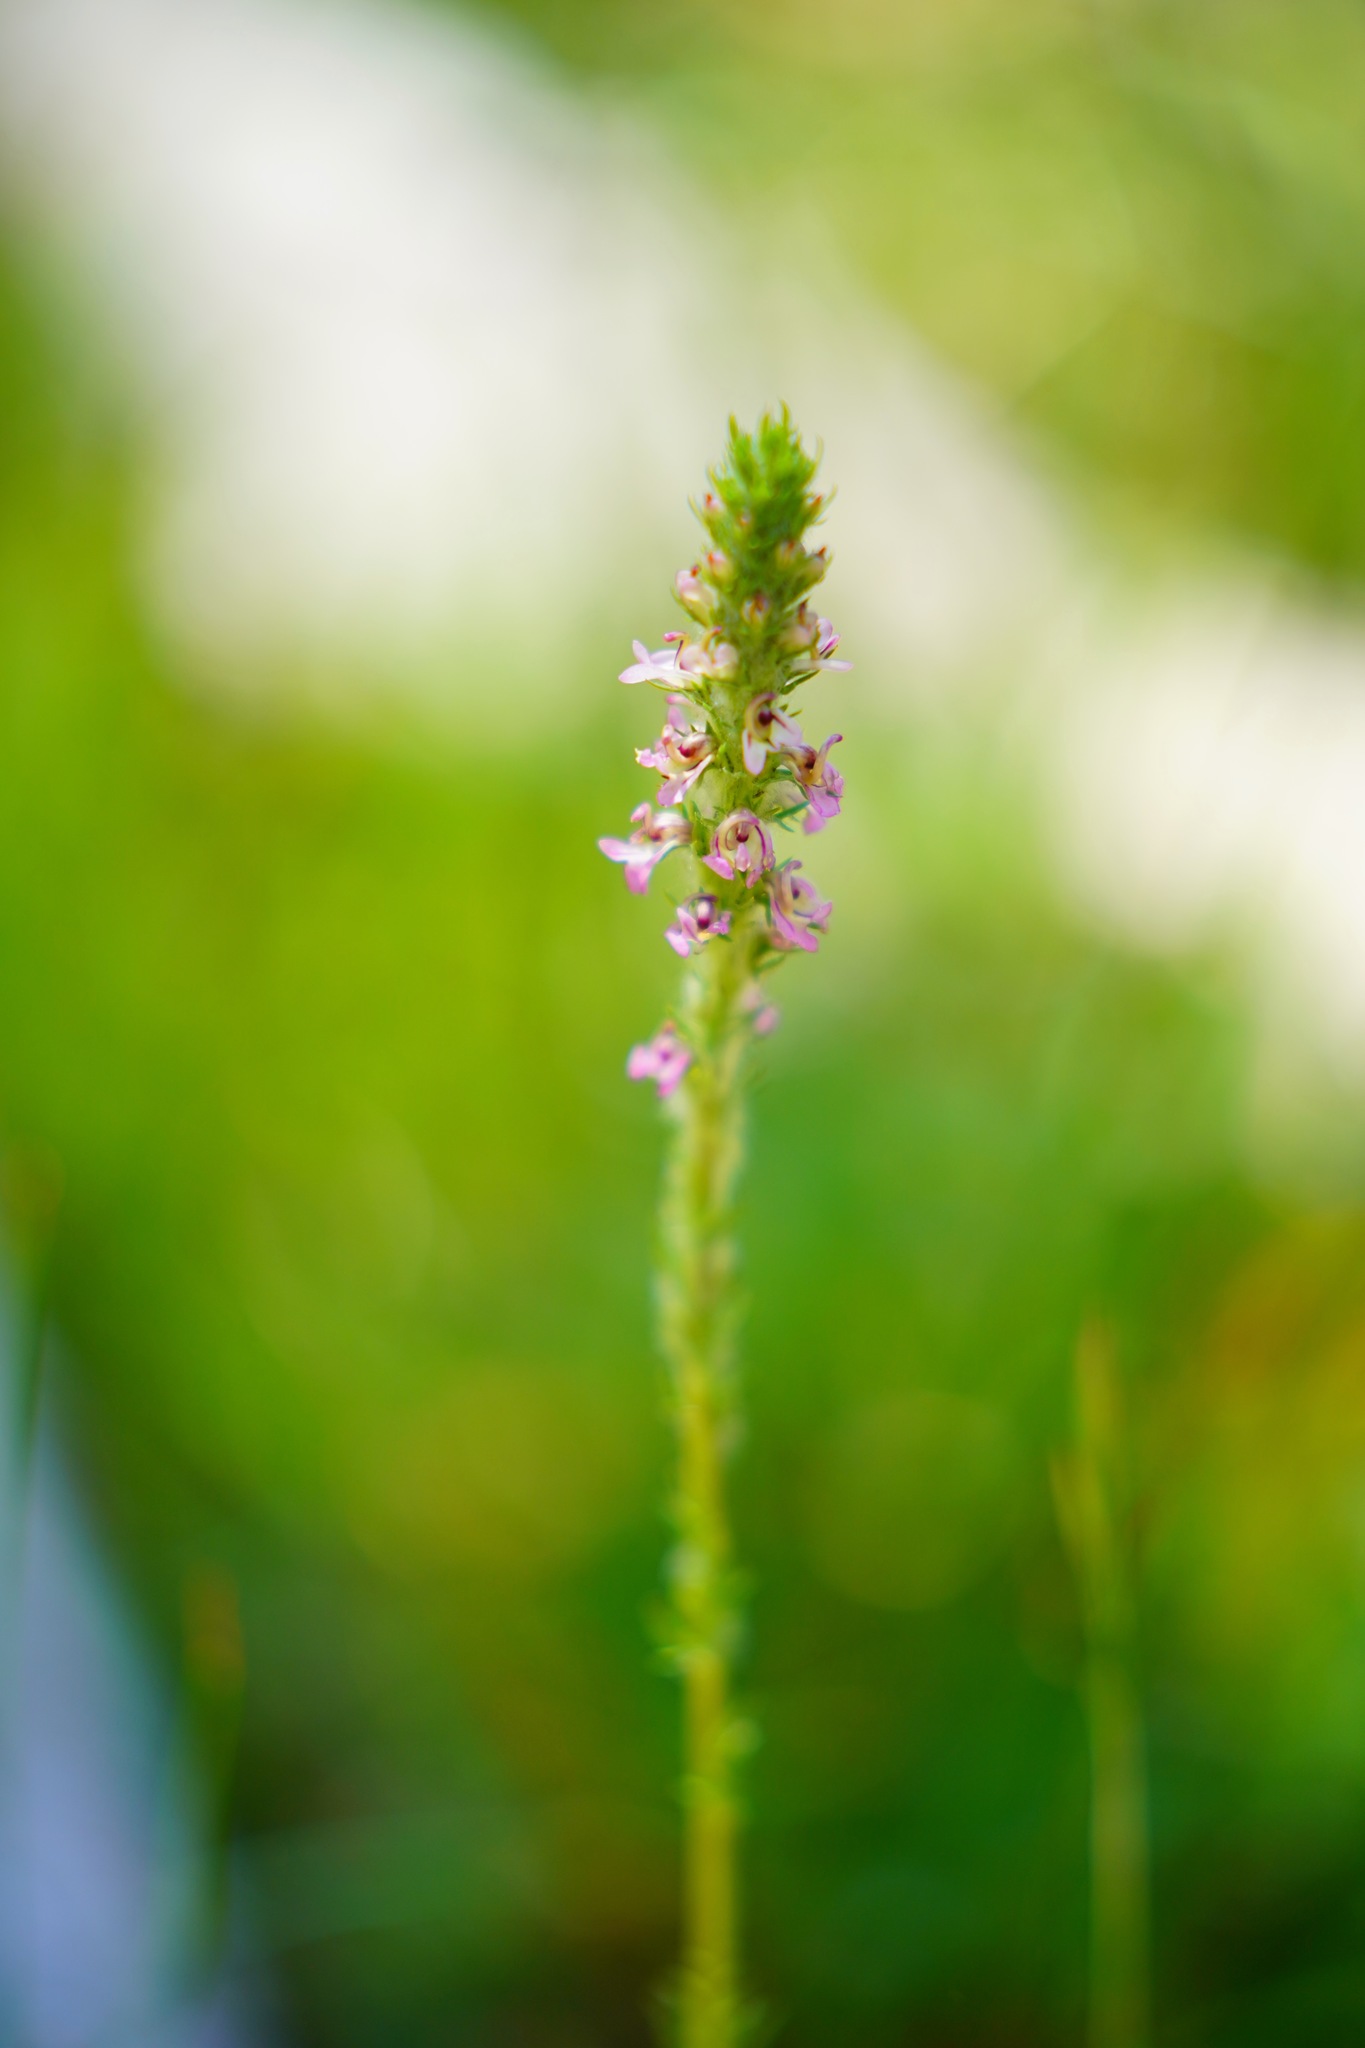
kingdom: Plantae
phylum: Tracheophyta
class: Magnoliopsida
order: Lamiales
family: Orobanchaceae
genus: Pedicularis
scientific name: Pedicularis attollens
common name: Slender pedicularis
